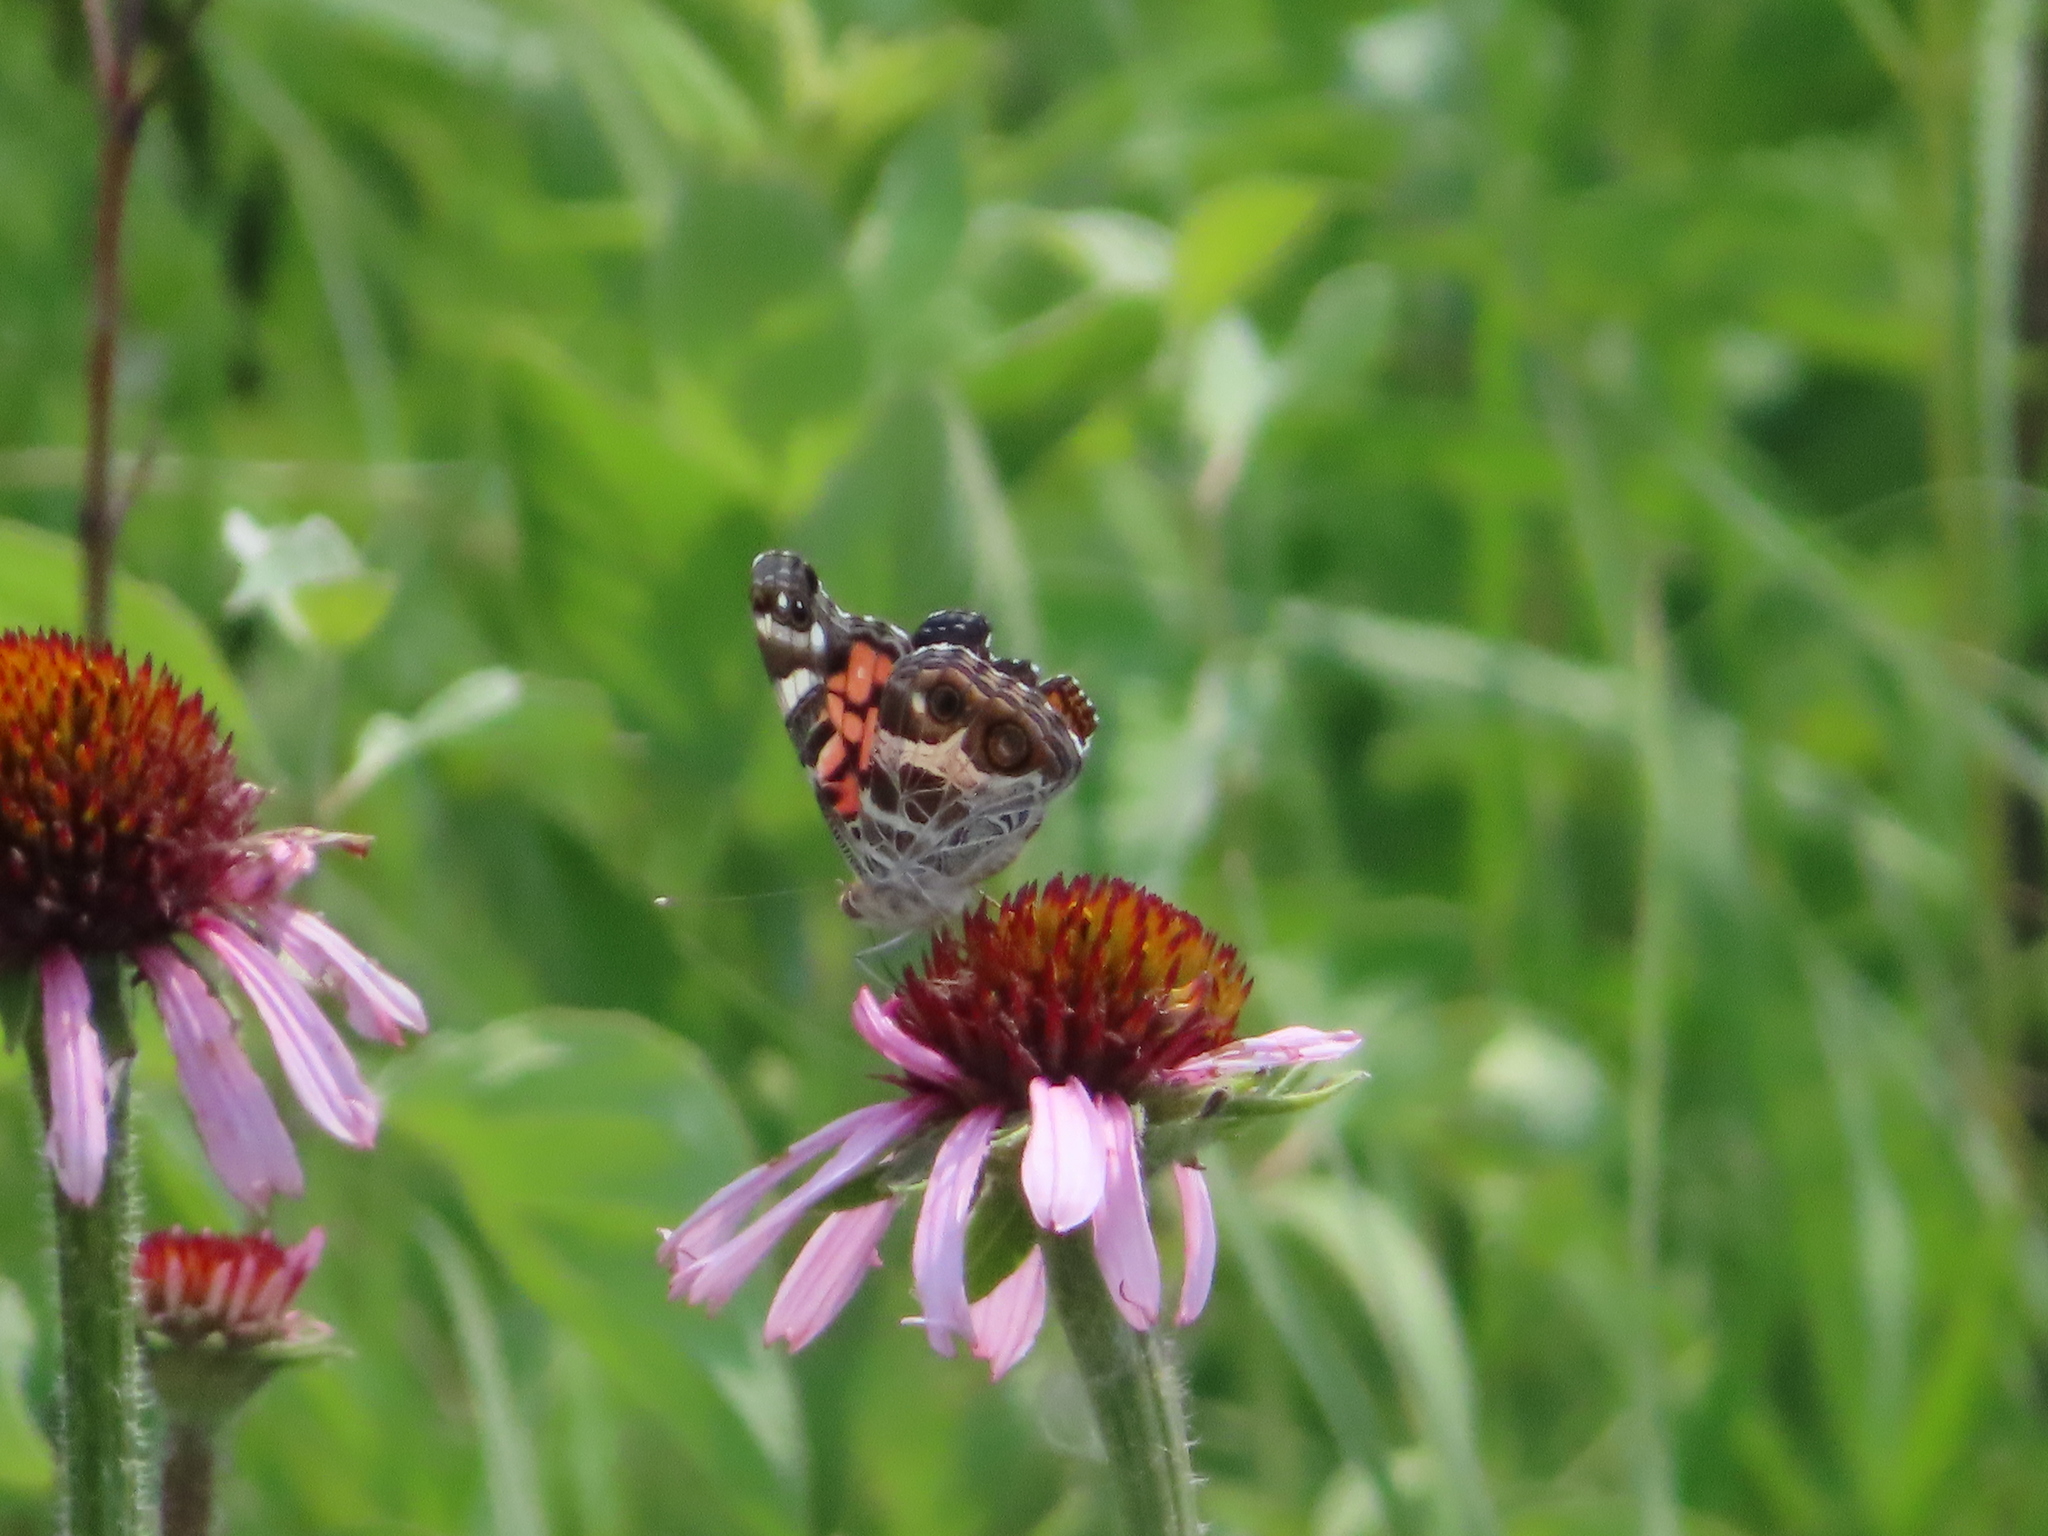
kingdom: Animalia
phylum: Arthropoda
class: Insecta
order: Lepidoptera
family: Nymphalidae
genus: Vanessa
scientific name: Vanessa virginiensis
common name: American lady
